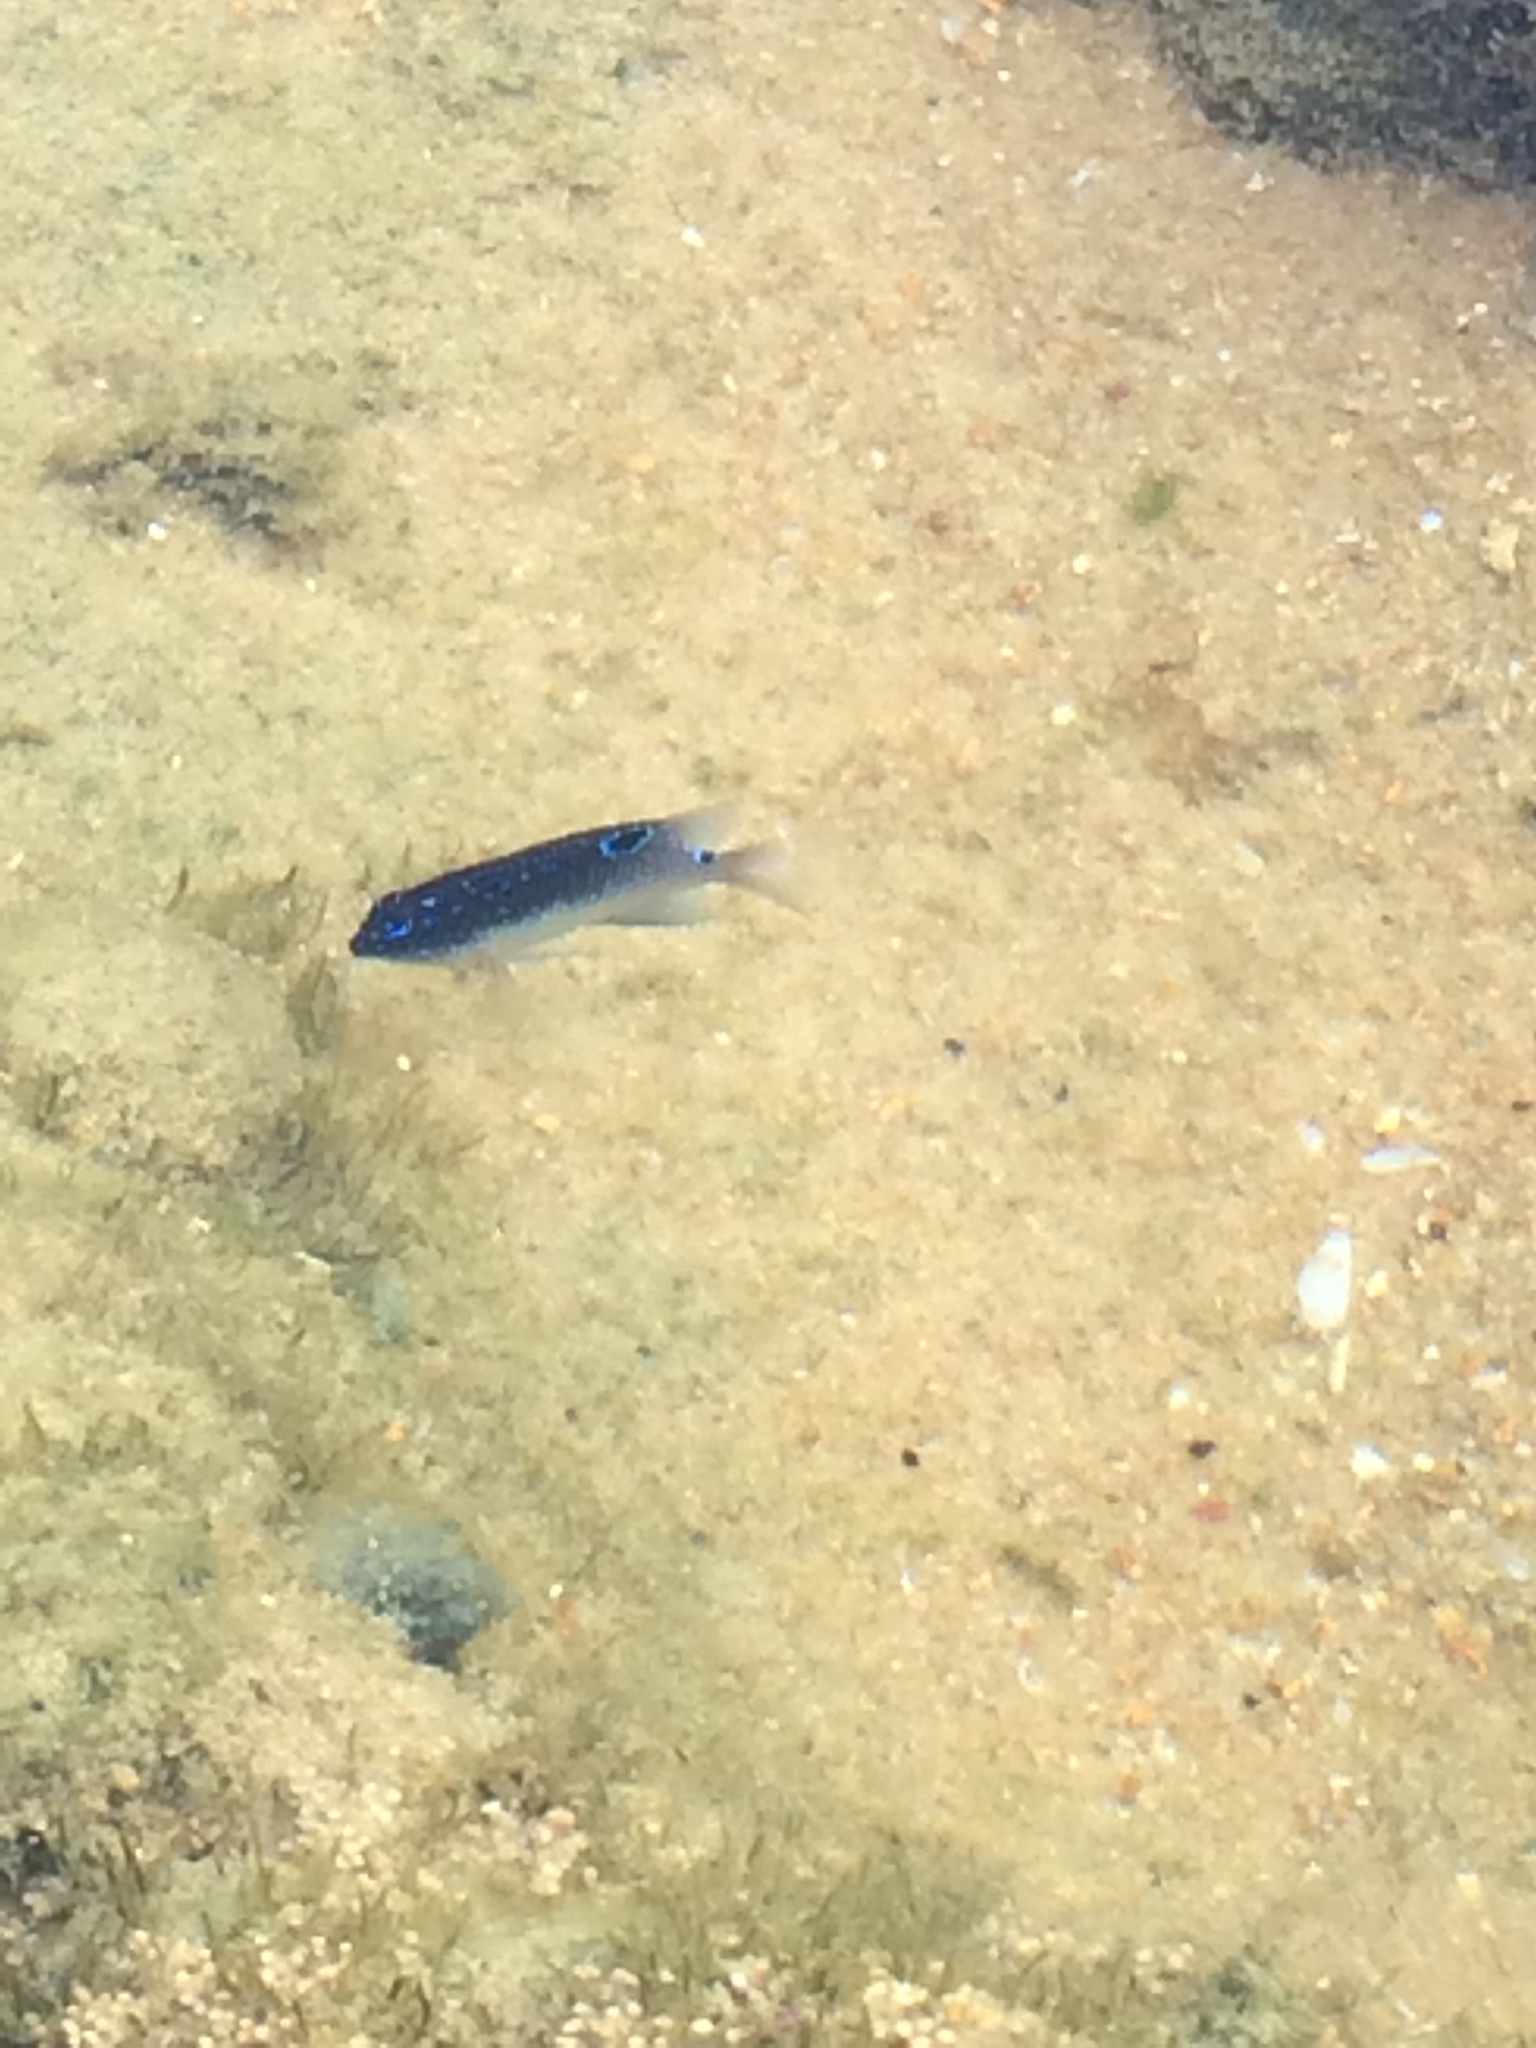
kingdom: Animalia
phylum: Chordata
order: Perciformes
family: Pomacentridae
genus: Stegastes
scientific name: Stegastes fuscus
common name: Brazilian damsel
